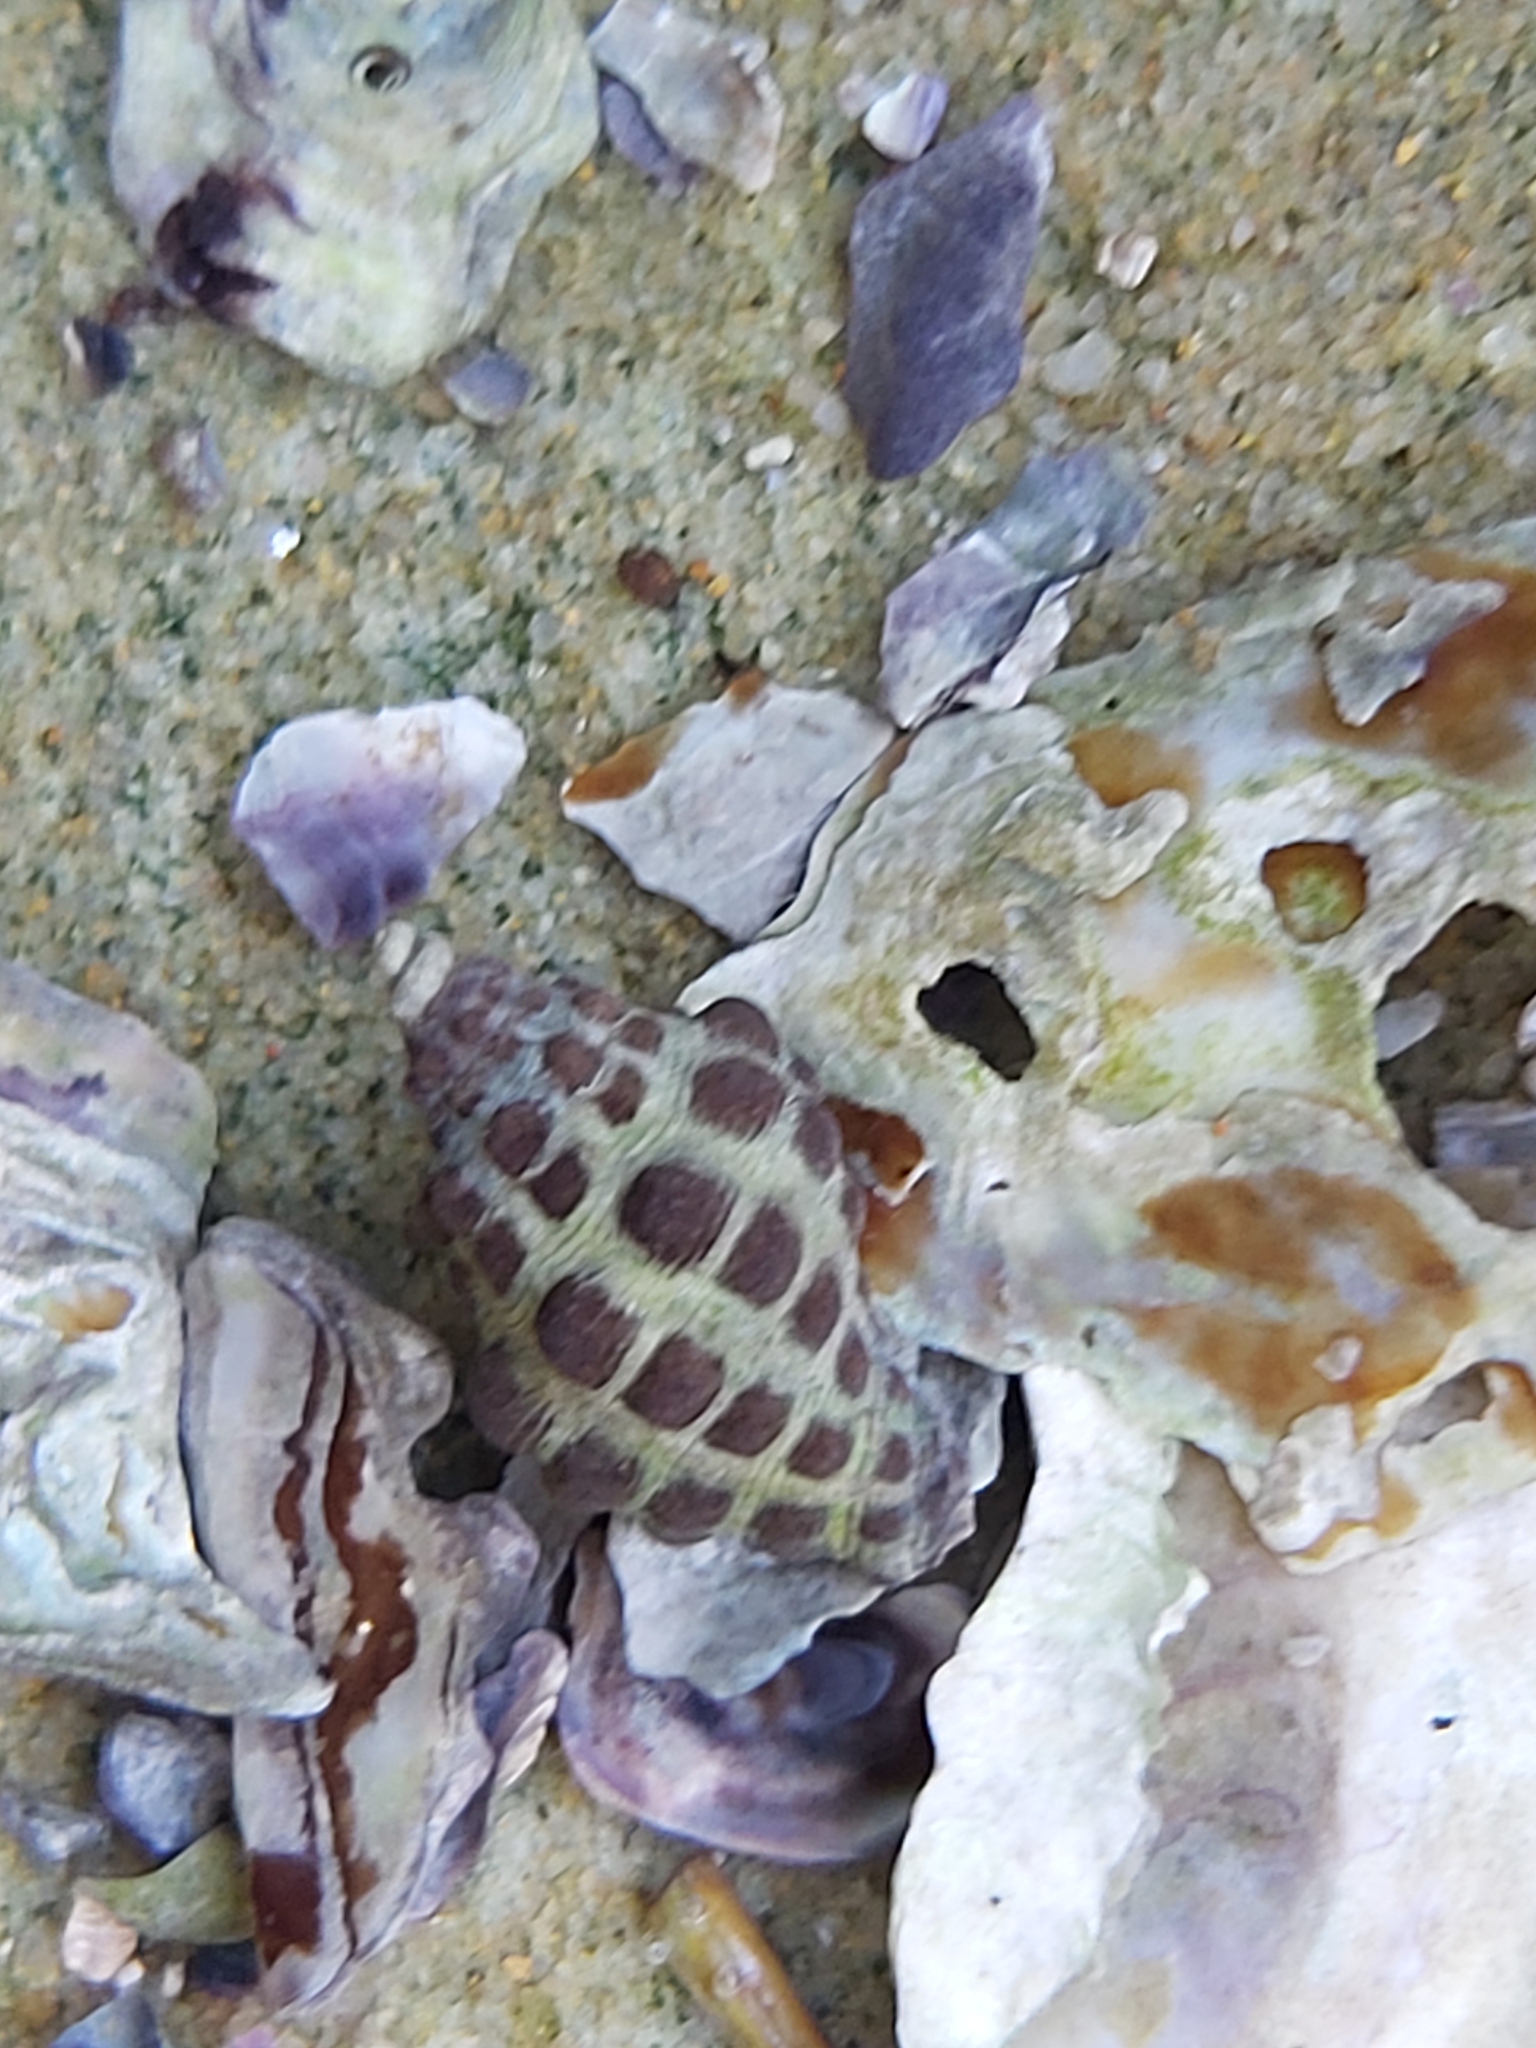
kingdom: Animalia
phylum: Mollusca
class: Gastropoda
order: Neogastropoda
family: Muricidae
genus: Tenguella
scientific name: Tenguella marginalba
